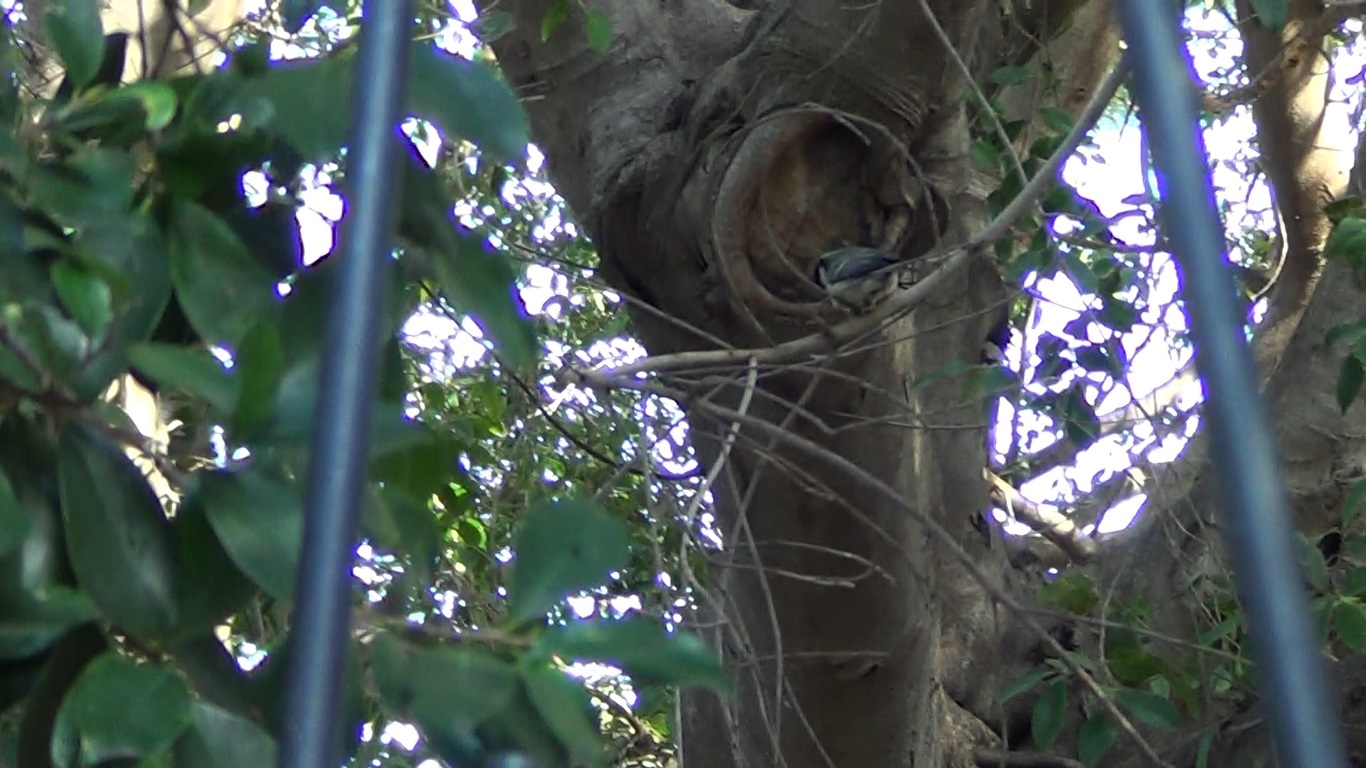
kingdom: Animalia
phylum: Chordata
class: Aves
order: Passeriformes
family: Paridae
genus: Parus
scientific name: Parus major
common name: Great tit
